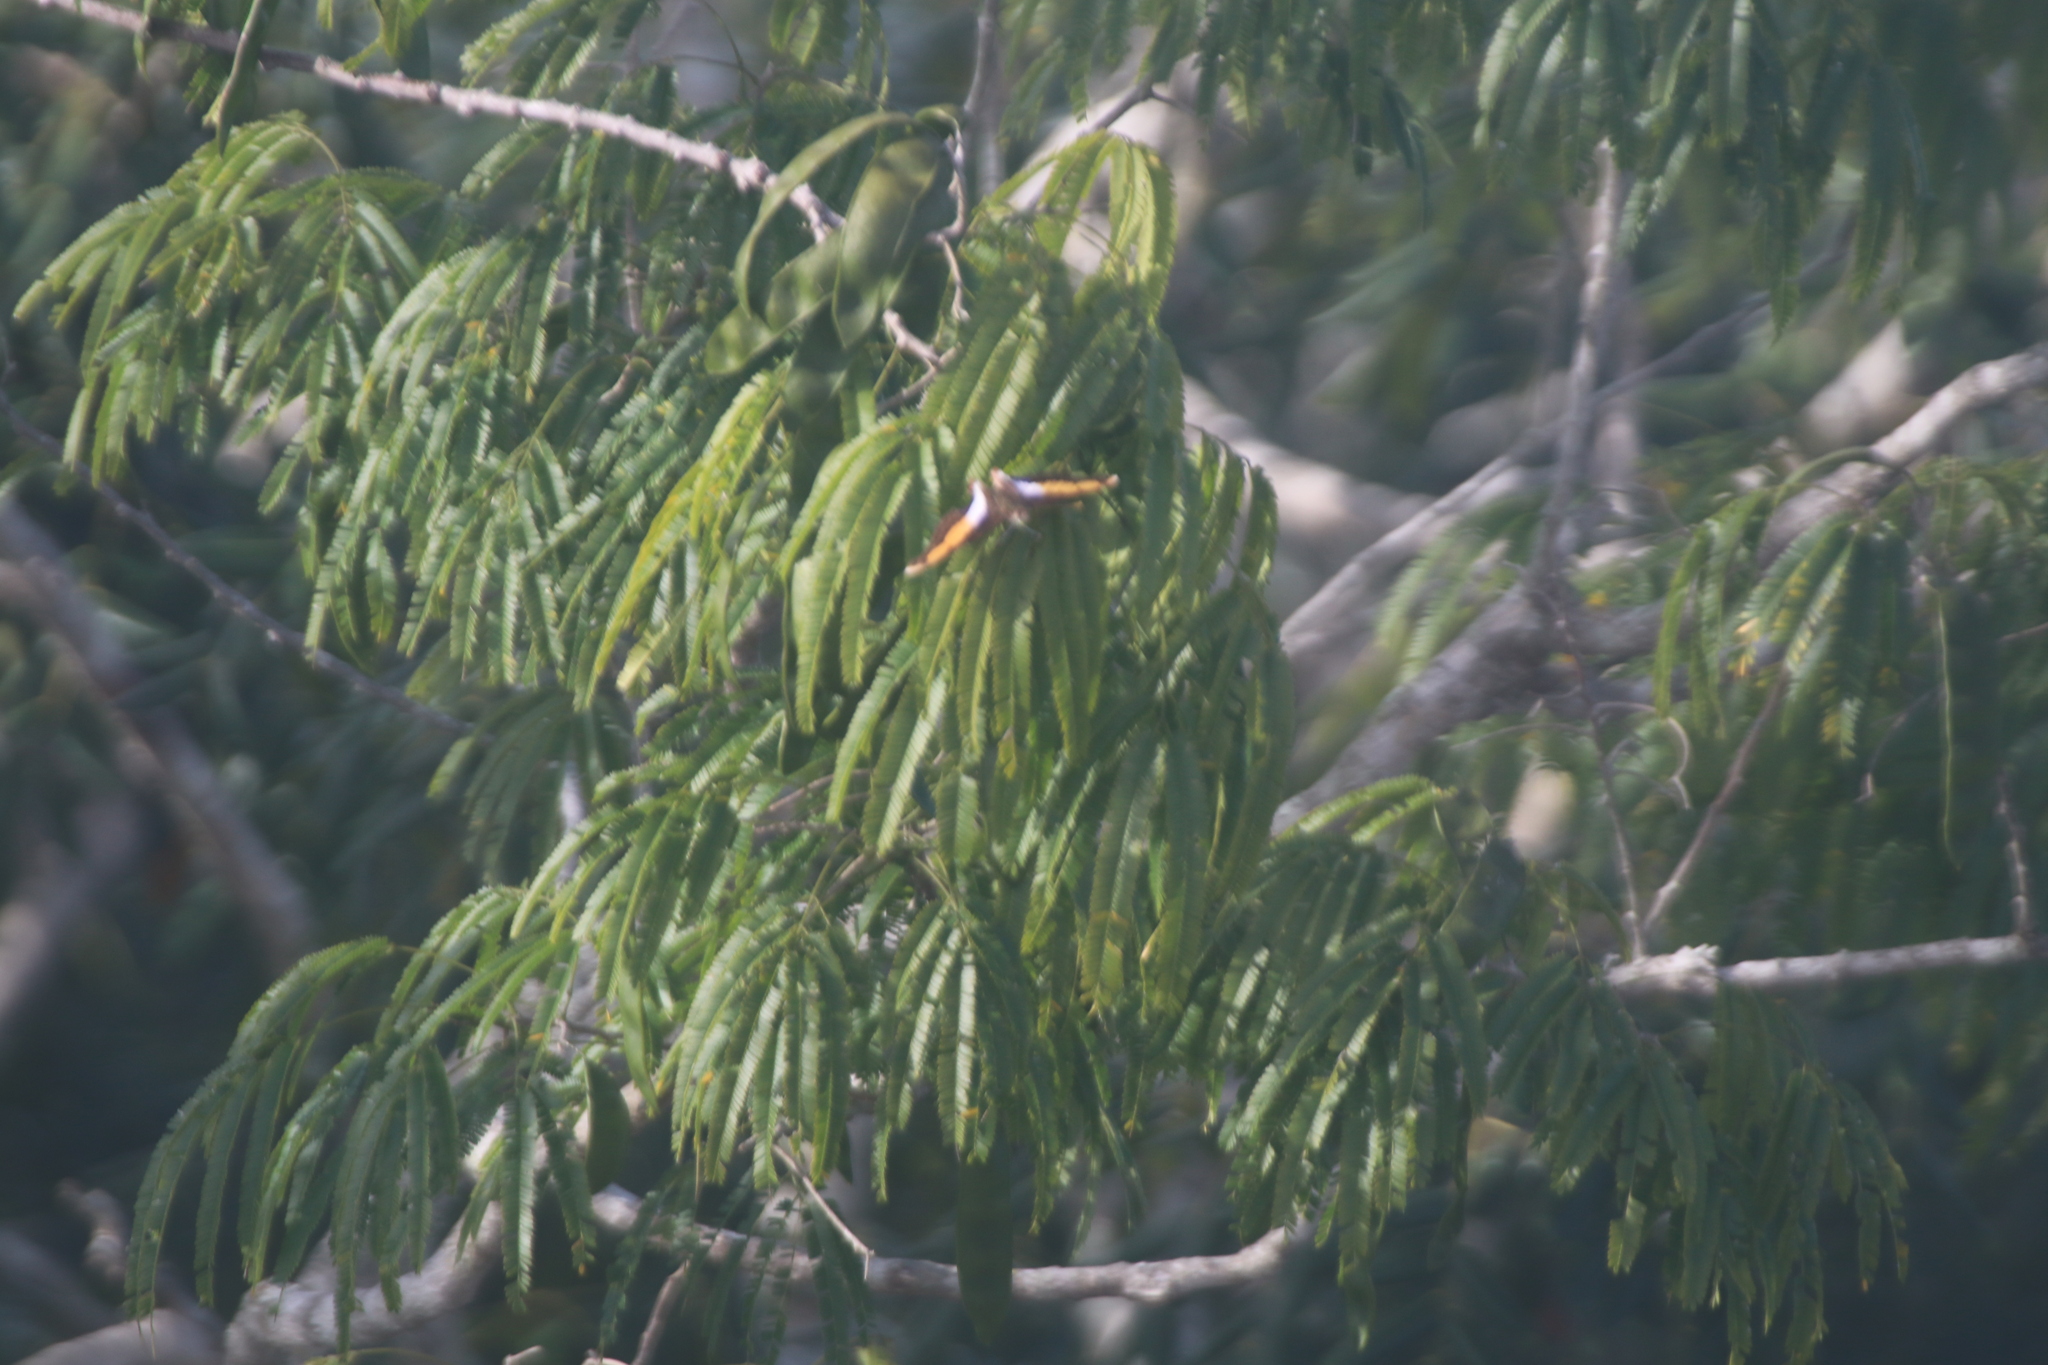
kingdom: Animalia
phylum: Arthropoda
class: Insecta
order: Lepidoptera
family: Nymphalidae
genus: Doxocopa
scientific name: Doxocopa
